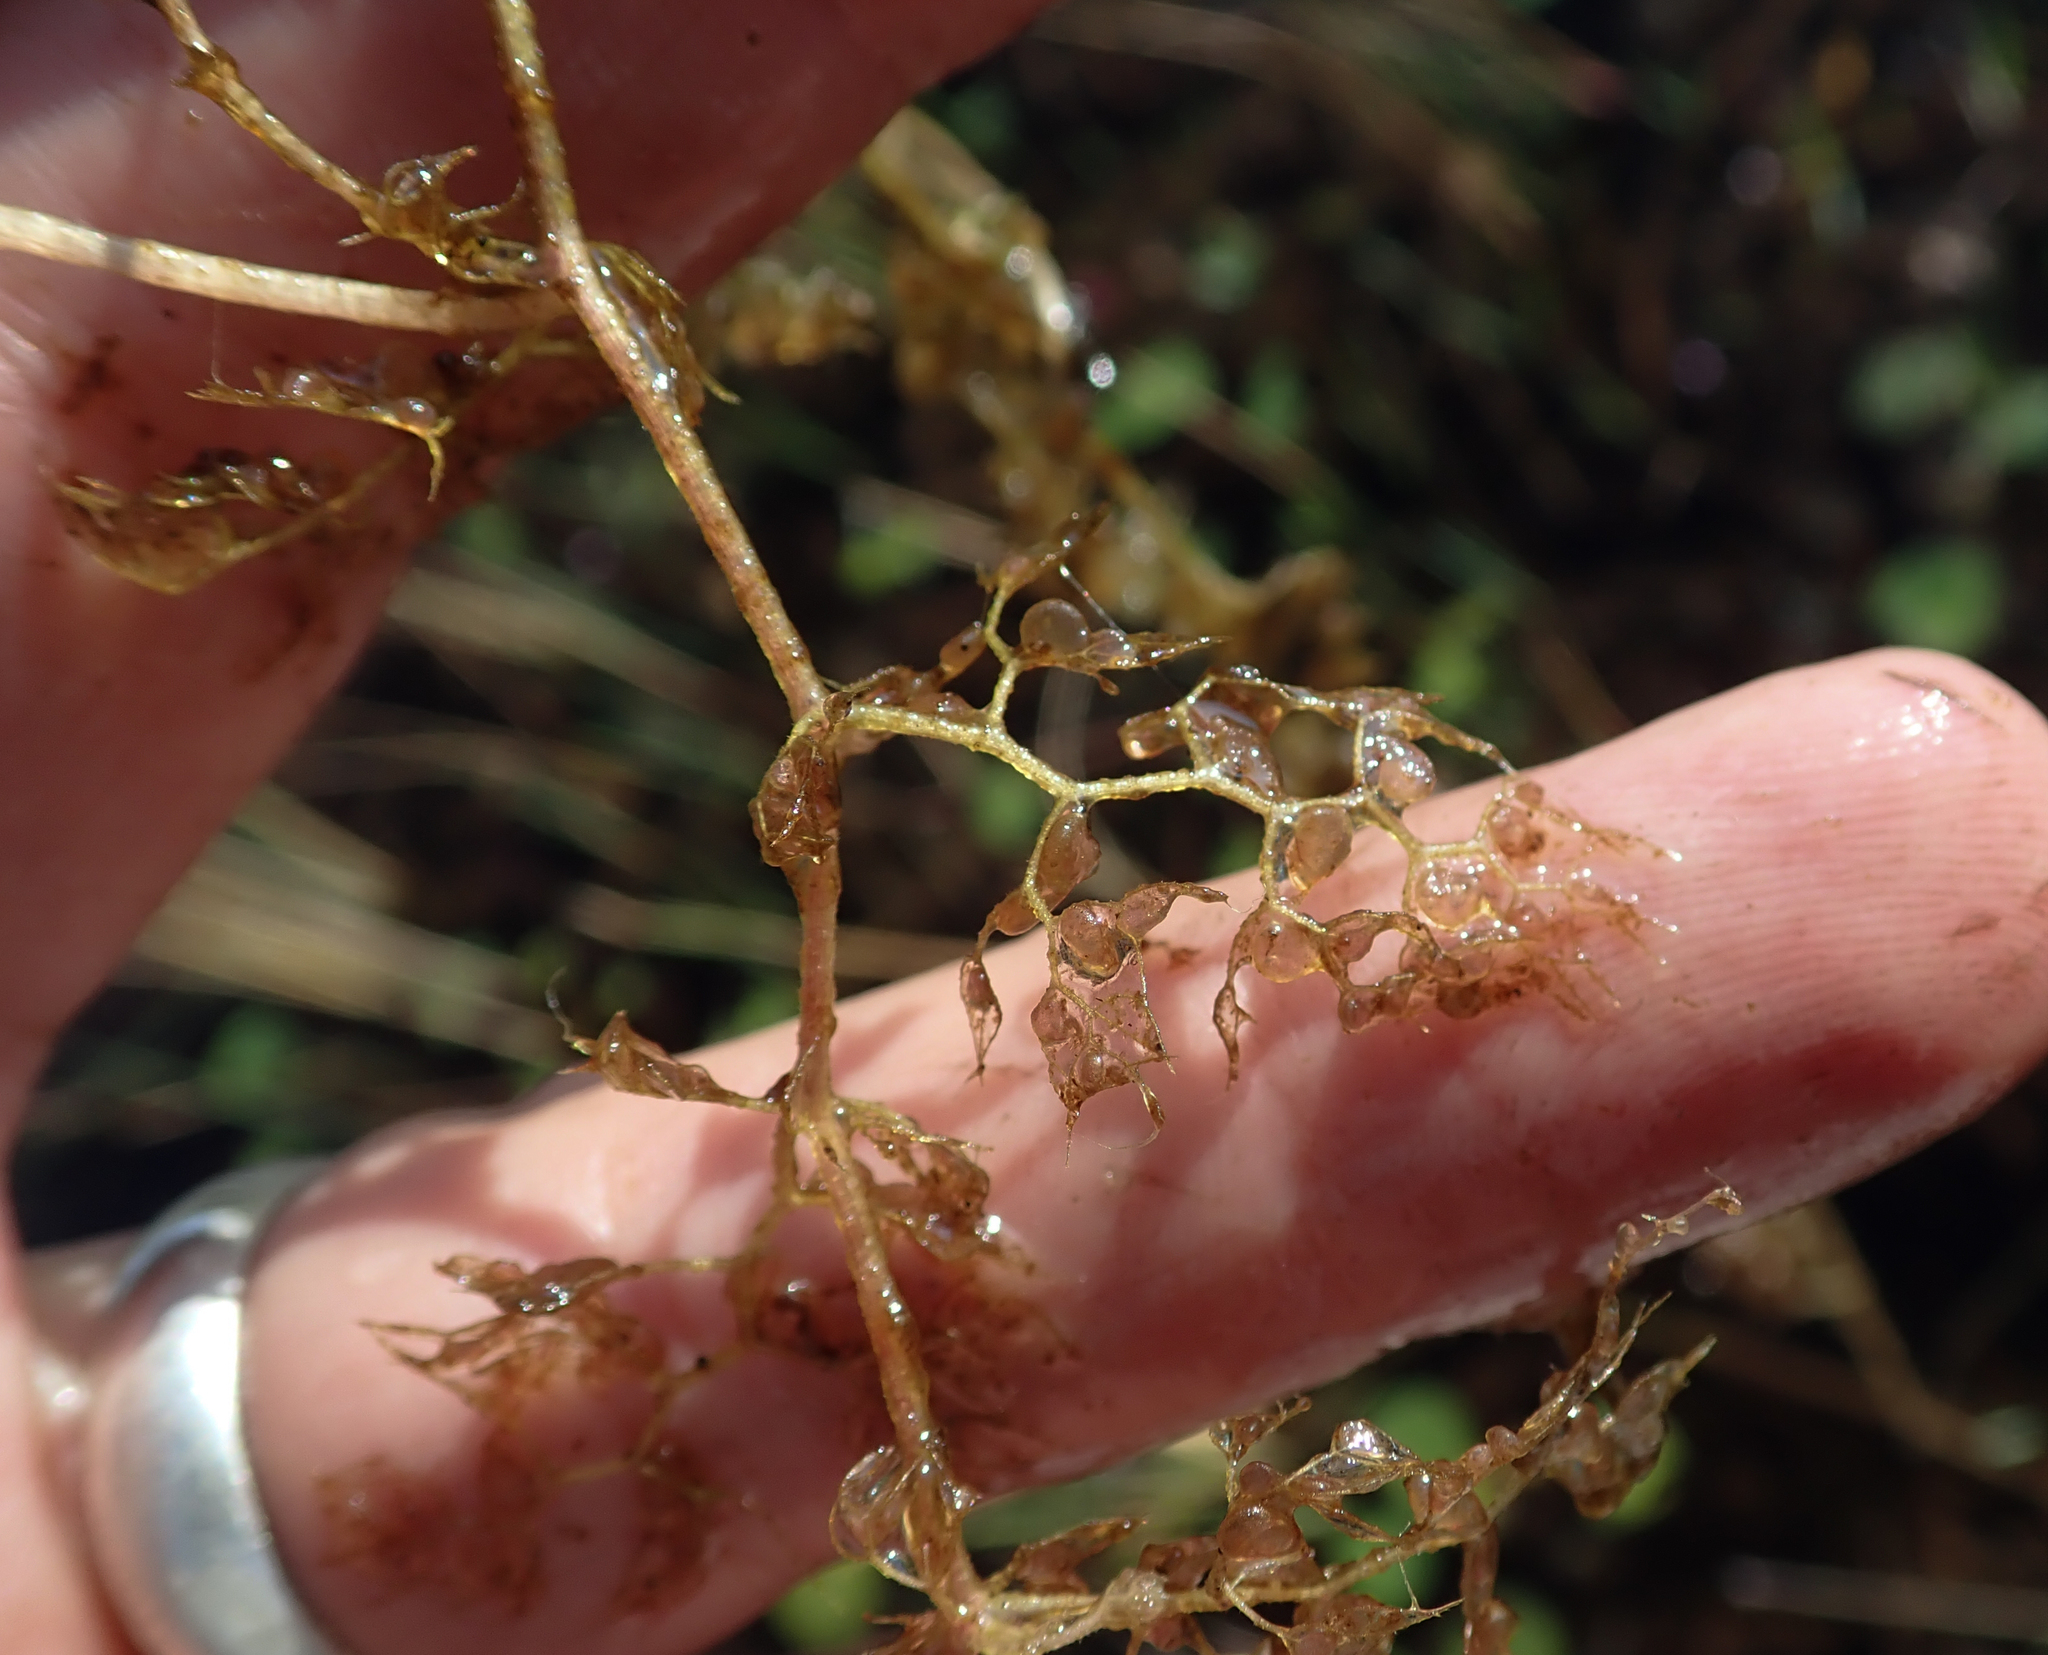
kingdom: Plantae
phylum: Tracheophyta
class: Magnoliopsida
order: Lamiales
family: Lentibulariaceae
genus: Utricularia
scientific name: Utricularia reflexa
